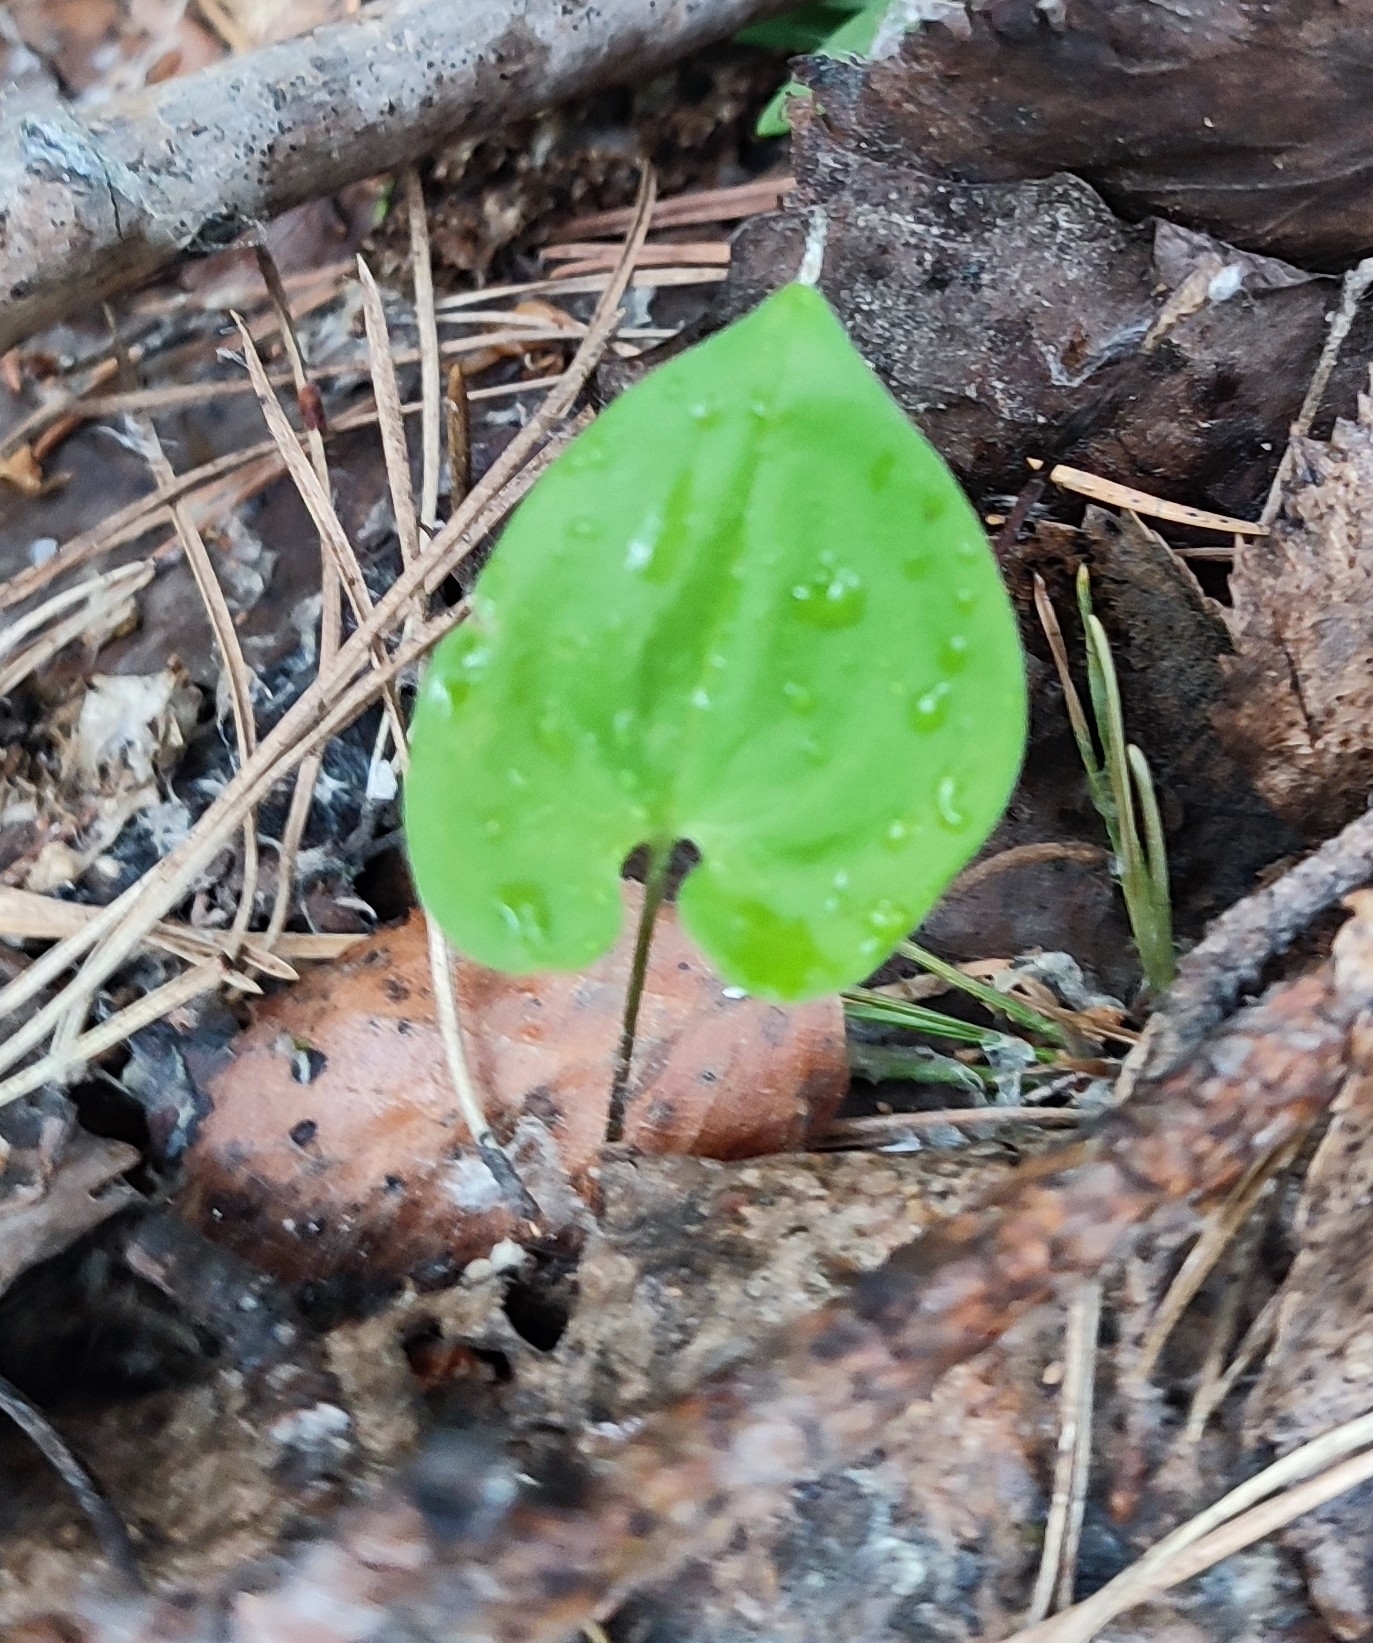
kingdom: Plantae
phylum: Tracheophyta
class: Liliopsida
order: Asparagales
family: Asparagaceae
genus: Maianthemum
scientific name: Maianthemum bifolium
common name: May lily
